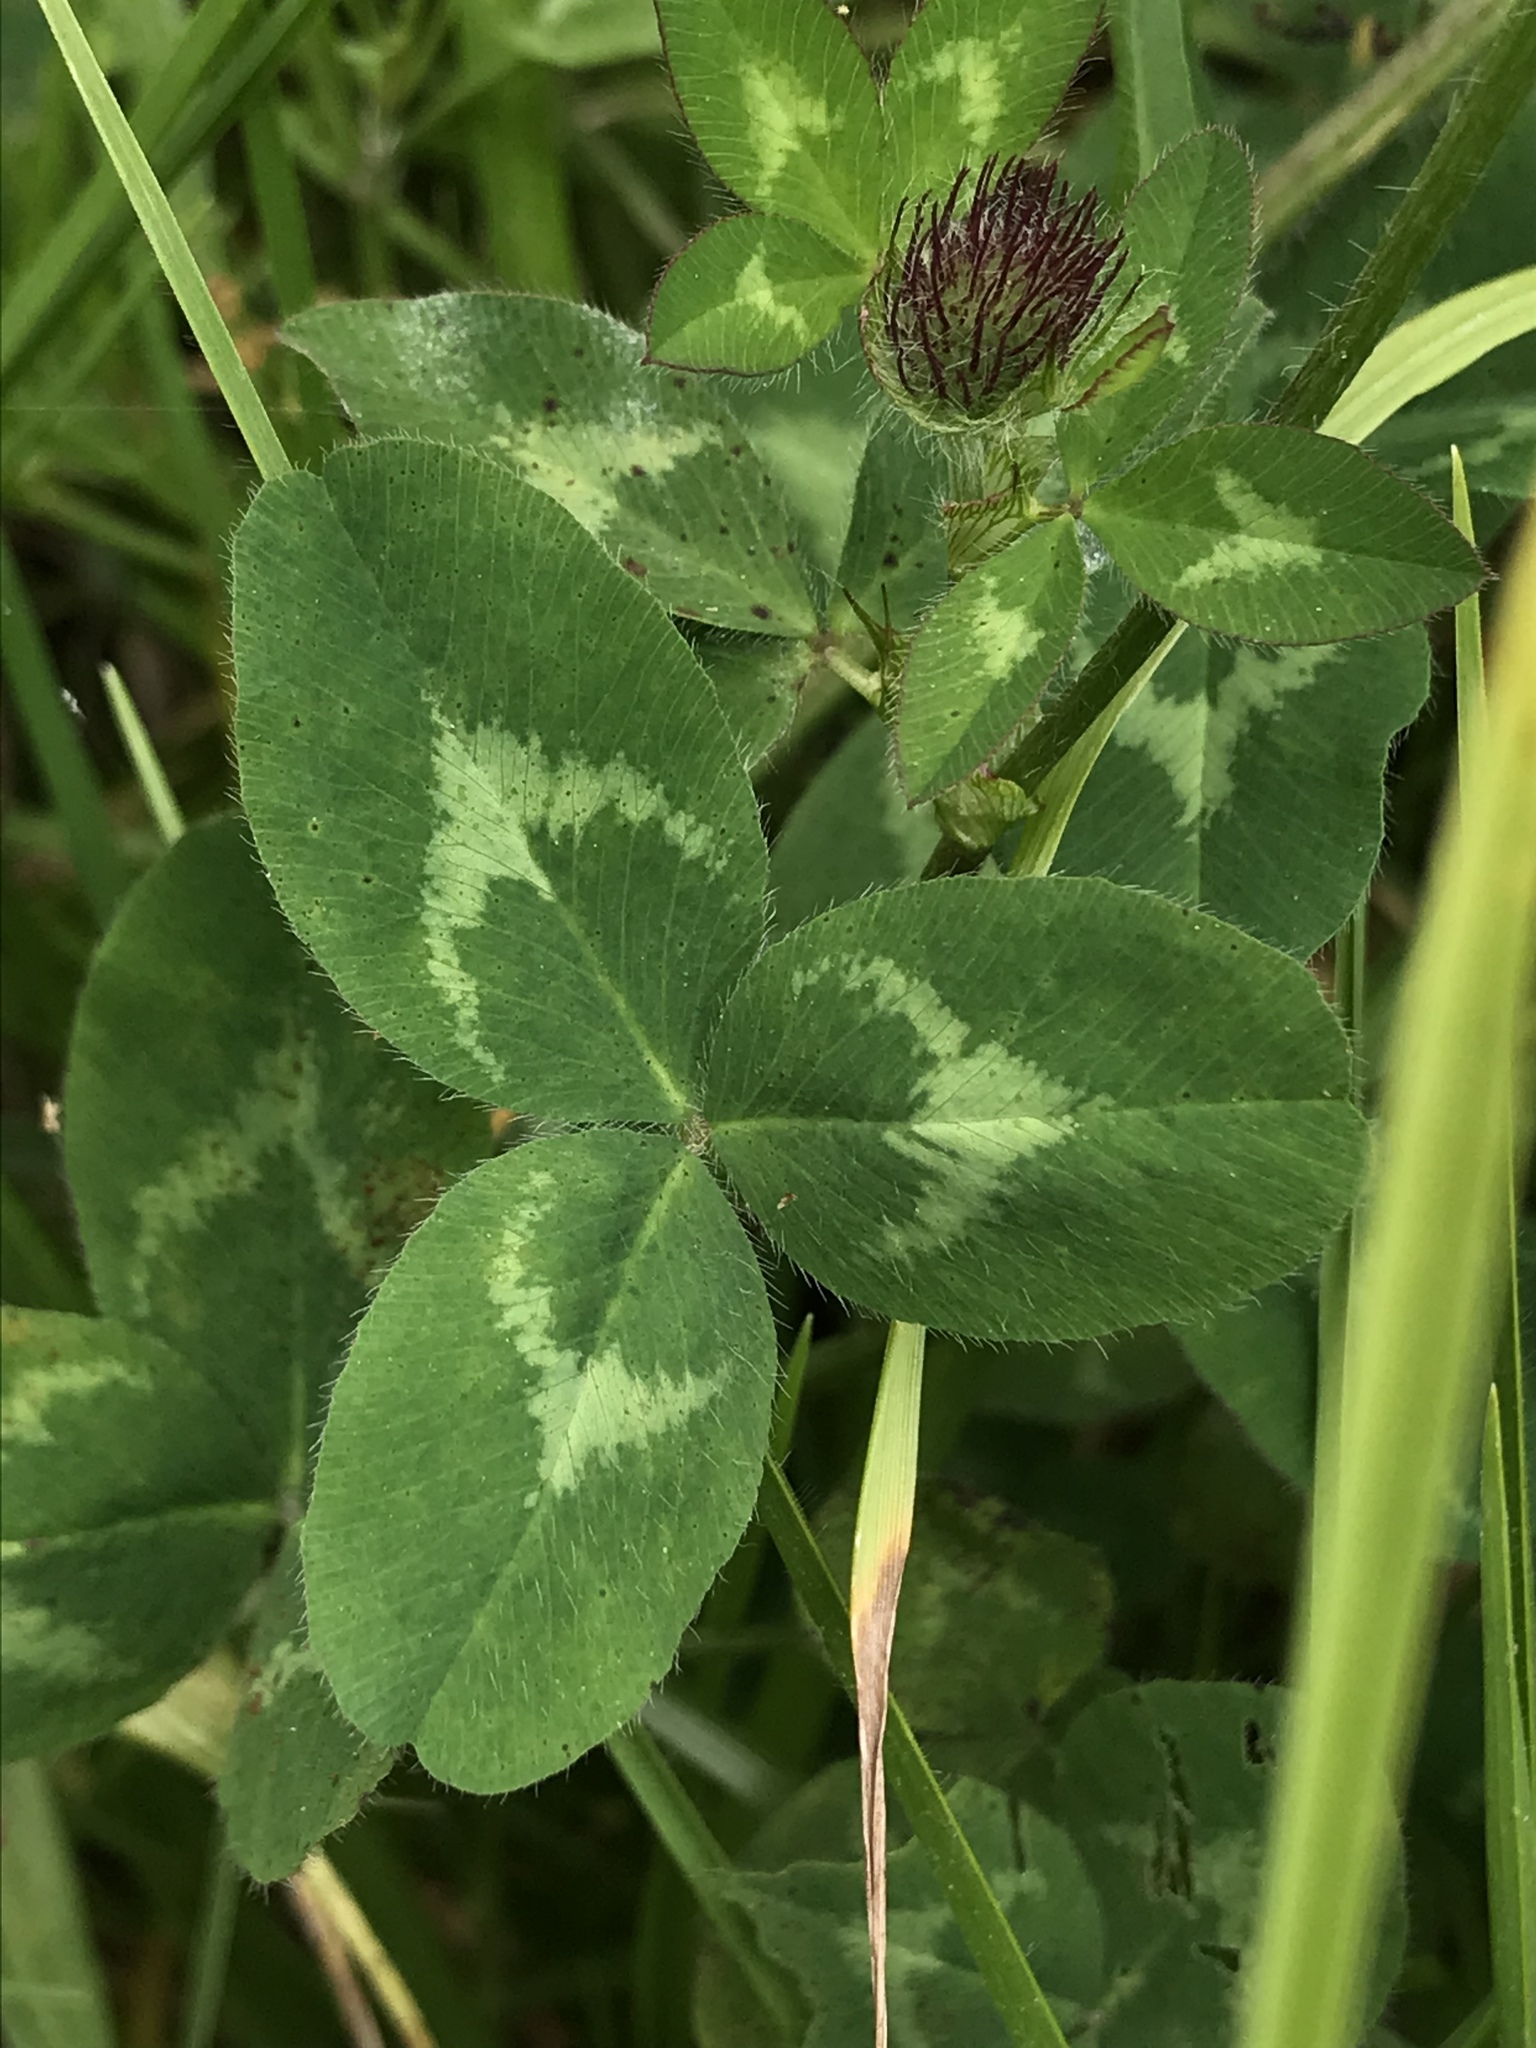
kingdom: Plantae
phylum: Tracheophyta
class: Magnoliopsida
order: Fabales
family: Fabaceae
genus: Trifolium
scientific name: Trifolium pratense
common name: Red clover
